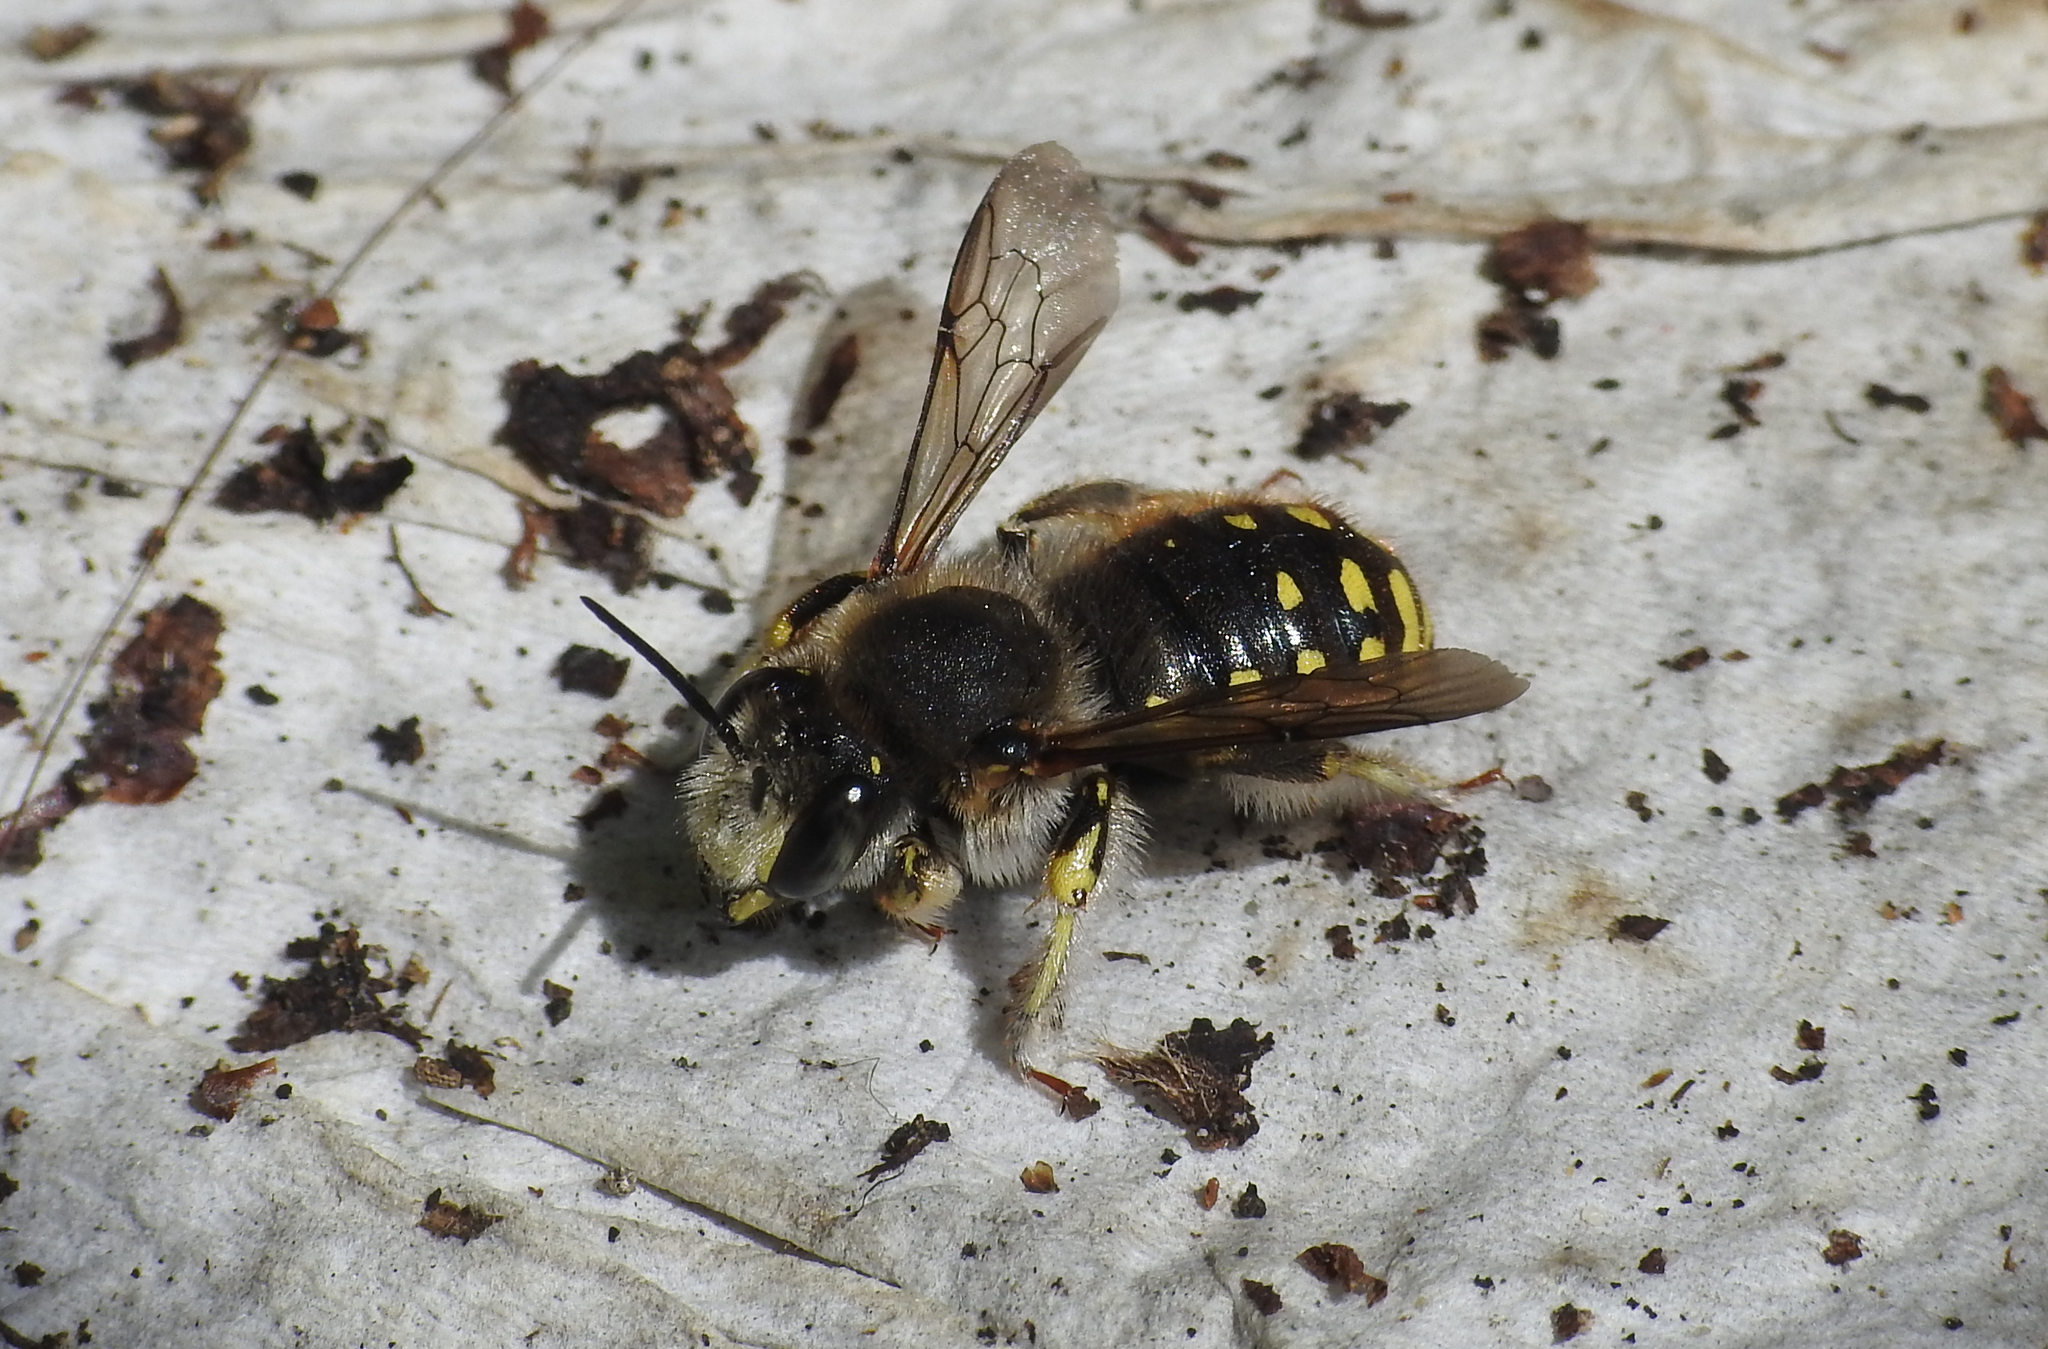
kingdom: Animalia
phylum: Arthropoda
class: Insecta
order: Hymenoptera
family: Megachilidae
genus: Anthidium
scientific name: Anthidium manicatum
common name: Wool carder bee
